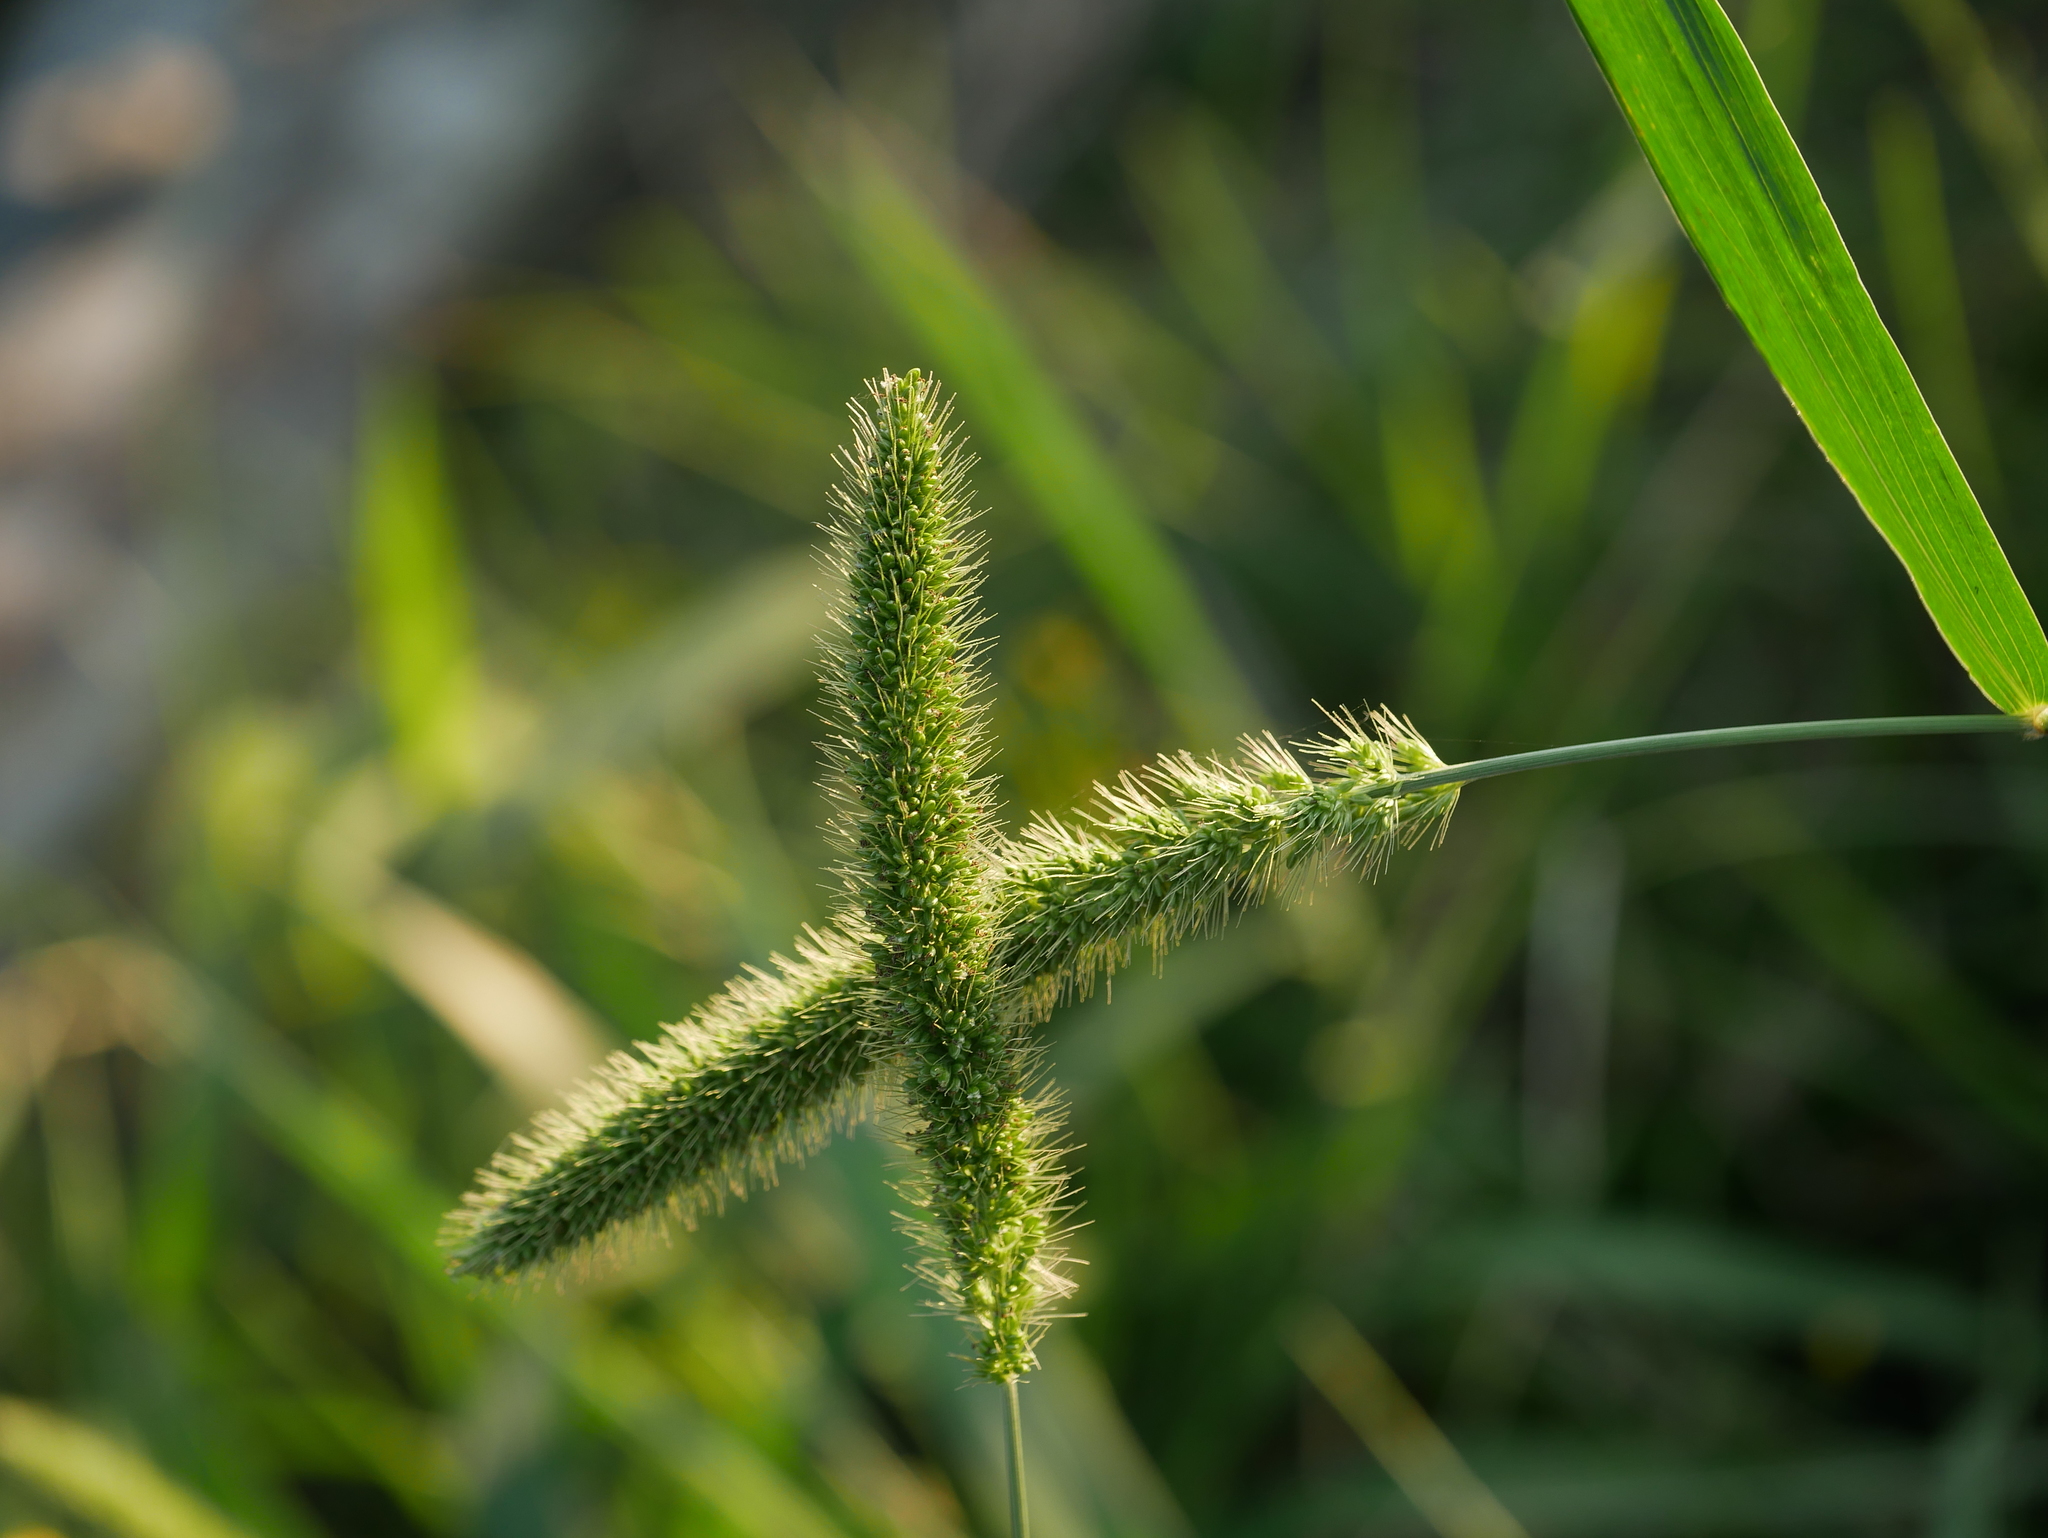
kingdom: Plantae
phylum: Tracheophyta
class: Liliopsida
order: Poales
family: Poaceae
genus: Setaria
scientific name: Setaria verticillata
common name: Hooked bristlegrass
